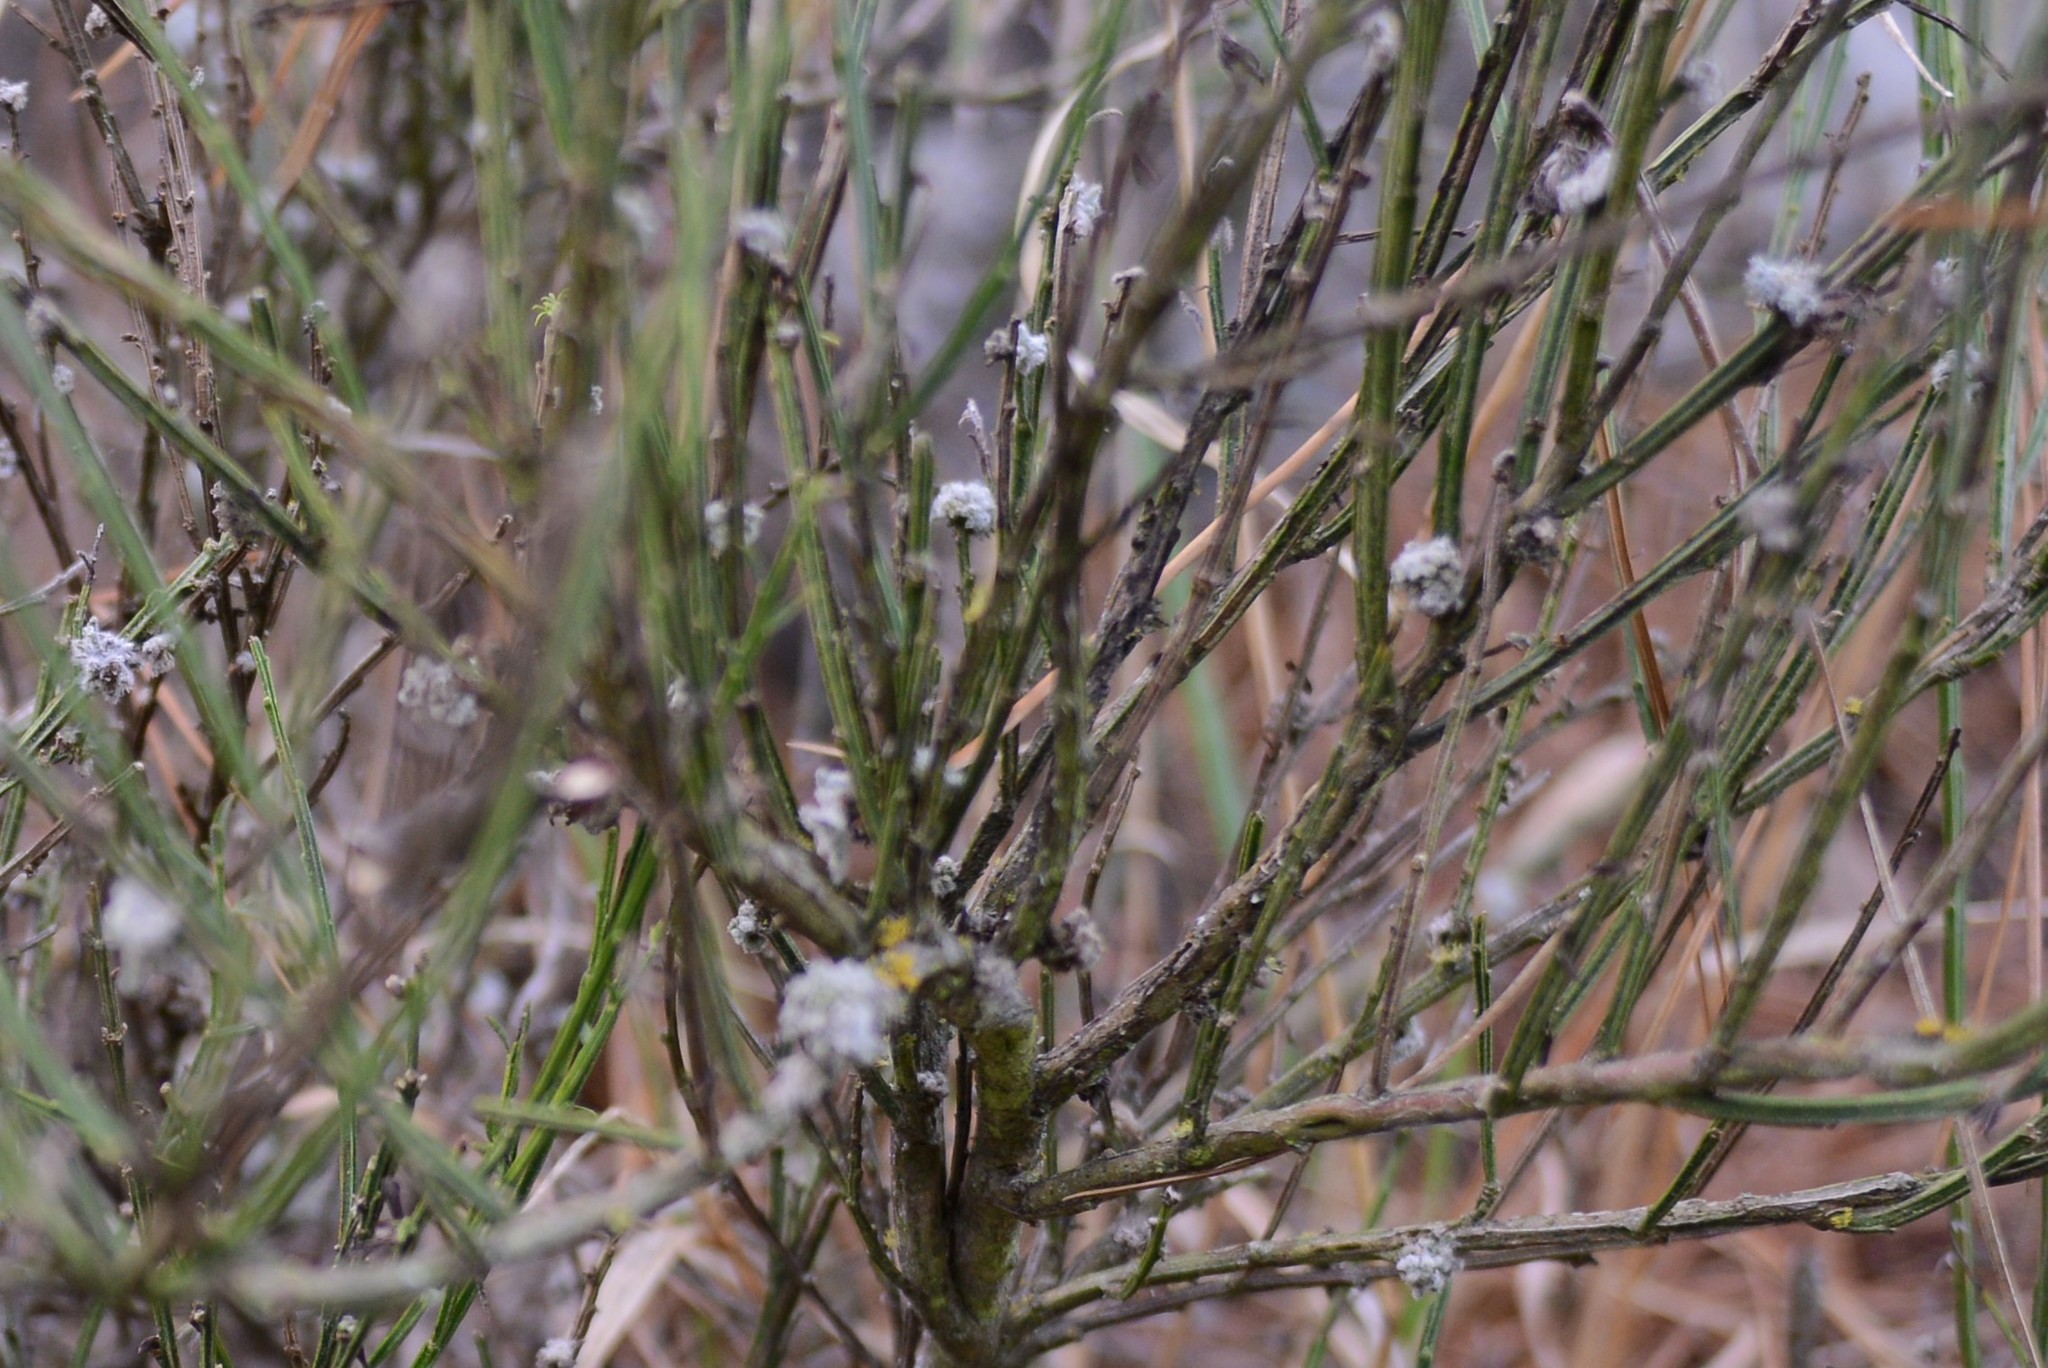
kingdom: Animalia
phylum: Arthropoda
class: Arachnida
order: Trombidiformes
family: Eriophyidae
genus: Aceria
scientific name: Aceria genistae
